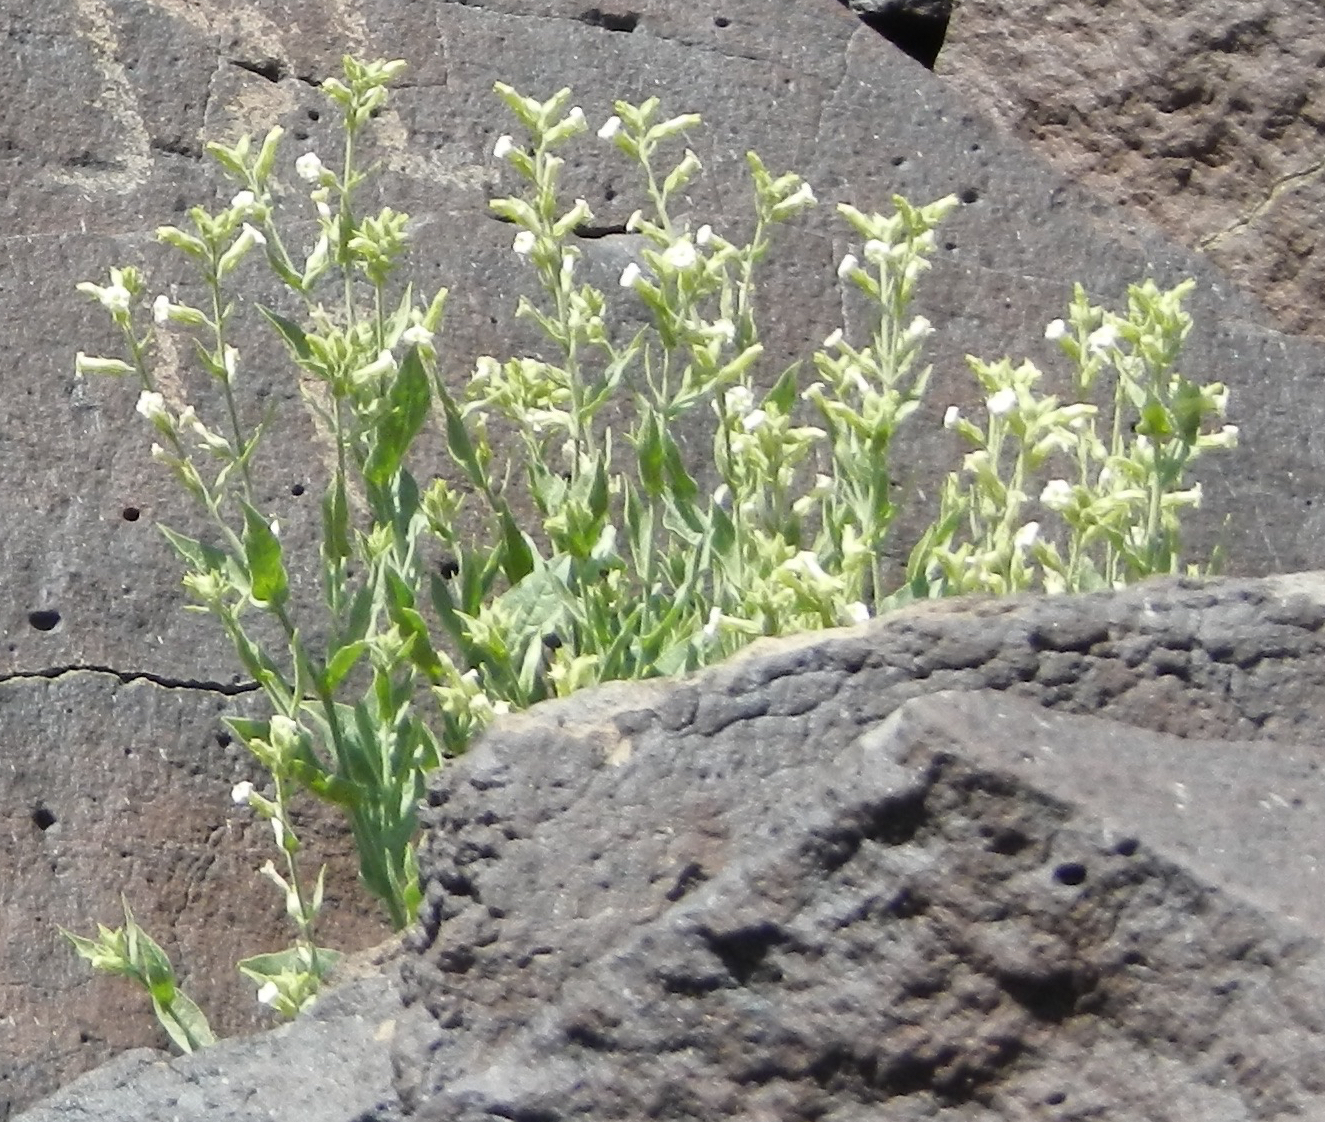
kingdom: Plantae
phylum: Tracheophyta
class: Magnoliopsida
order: Solanales
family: Solanaceae
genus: Nicotiana
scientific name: Nicotiana obtusifolia
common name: Desert tobacco
